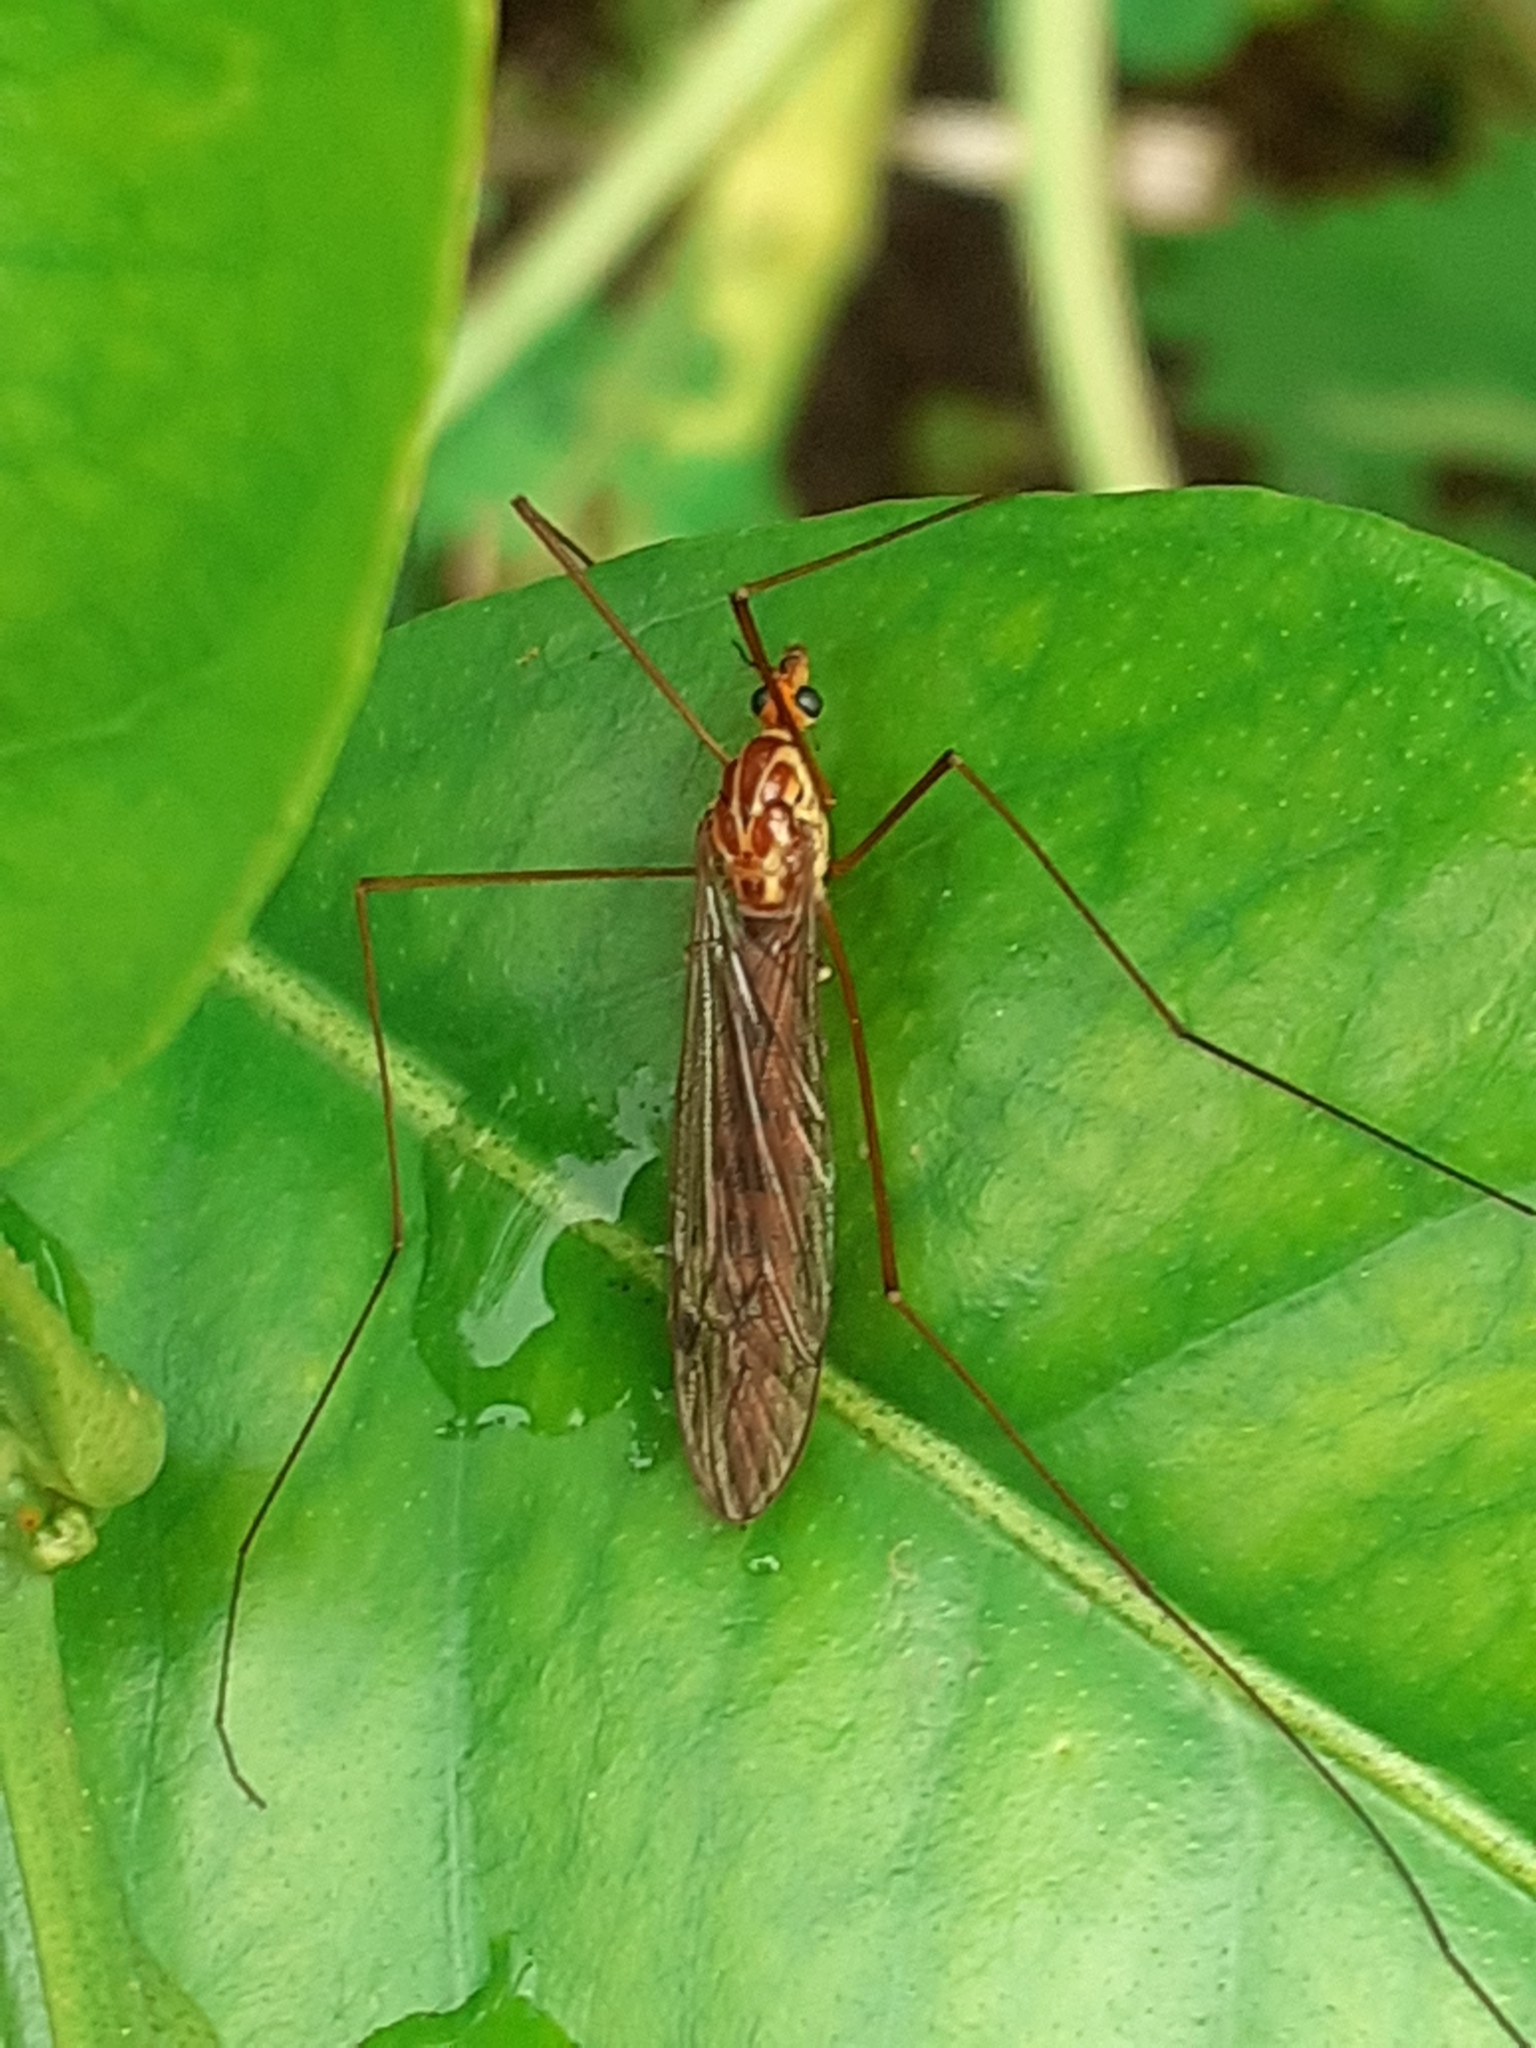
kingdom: Animalia
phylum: Arthropoda
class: Insecta
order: Diptera
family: Tipulidae
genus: Nephrotoma
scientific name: Nephrotoma
